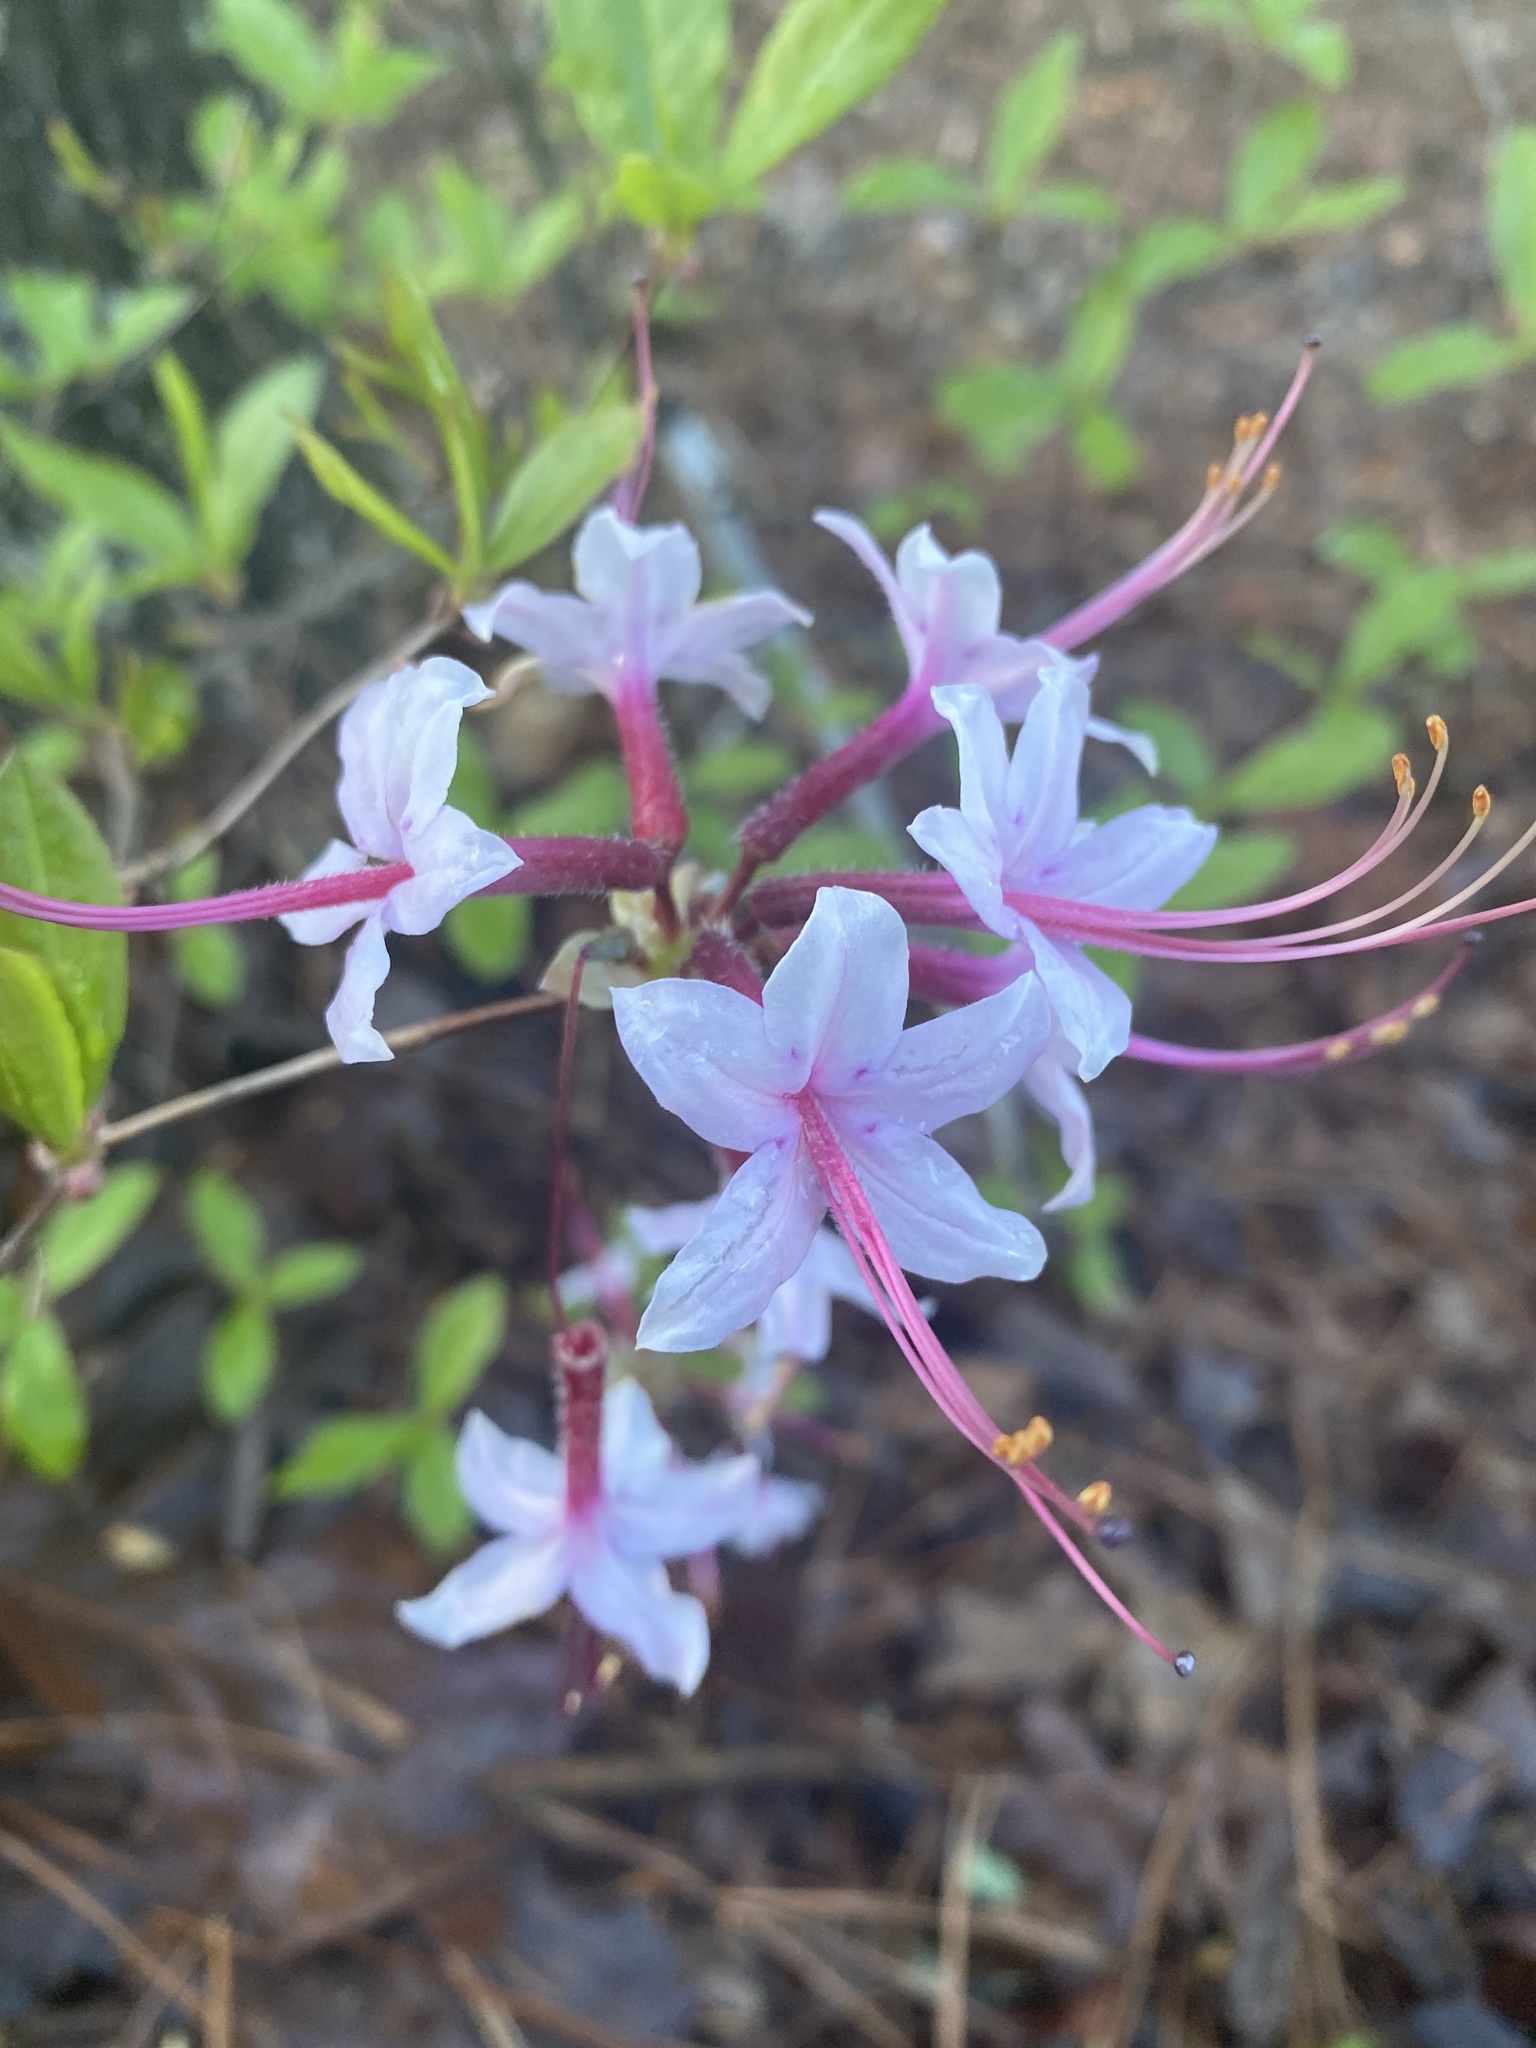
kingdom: Plantae
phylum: Tracheophyta
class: Magnoliopsida
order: Ericales
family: Ericaceae
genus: Rhododendron
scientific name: Rhododendron periclymenoides
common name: Election-pink
